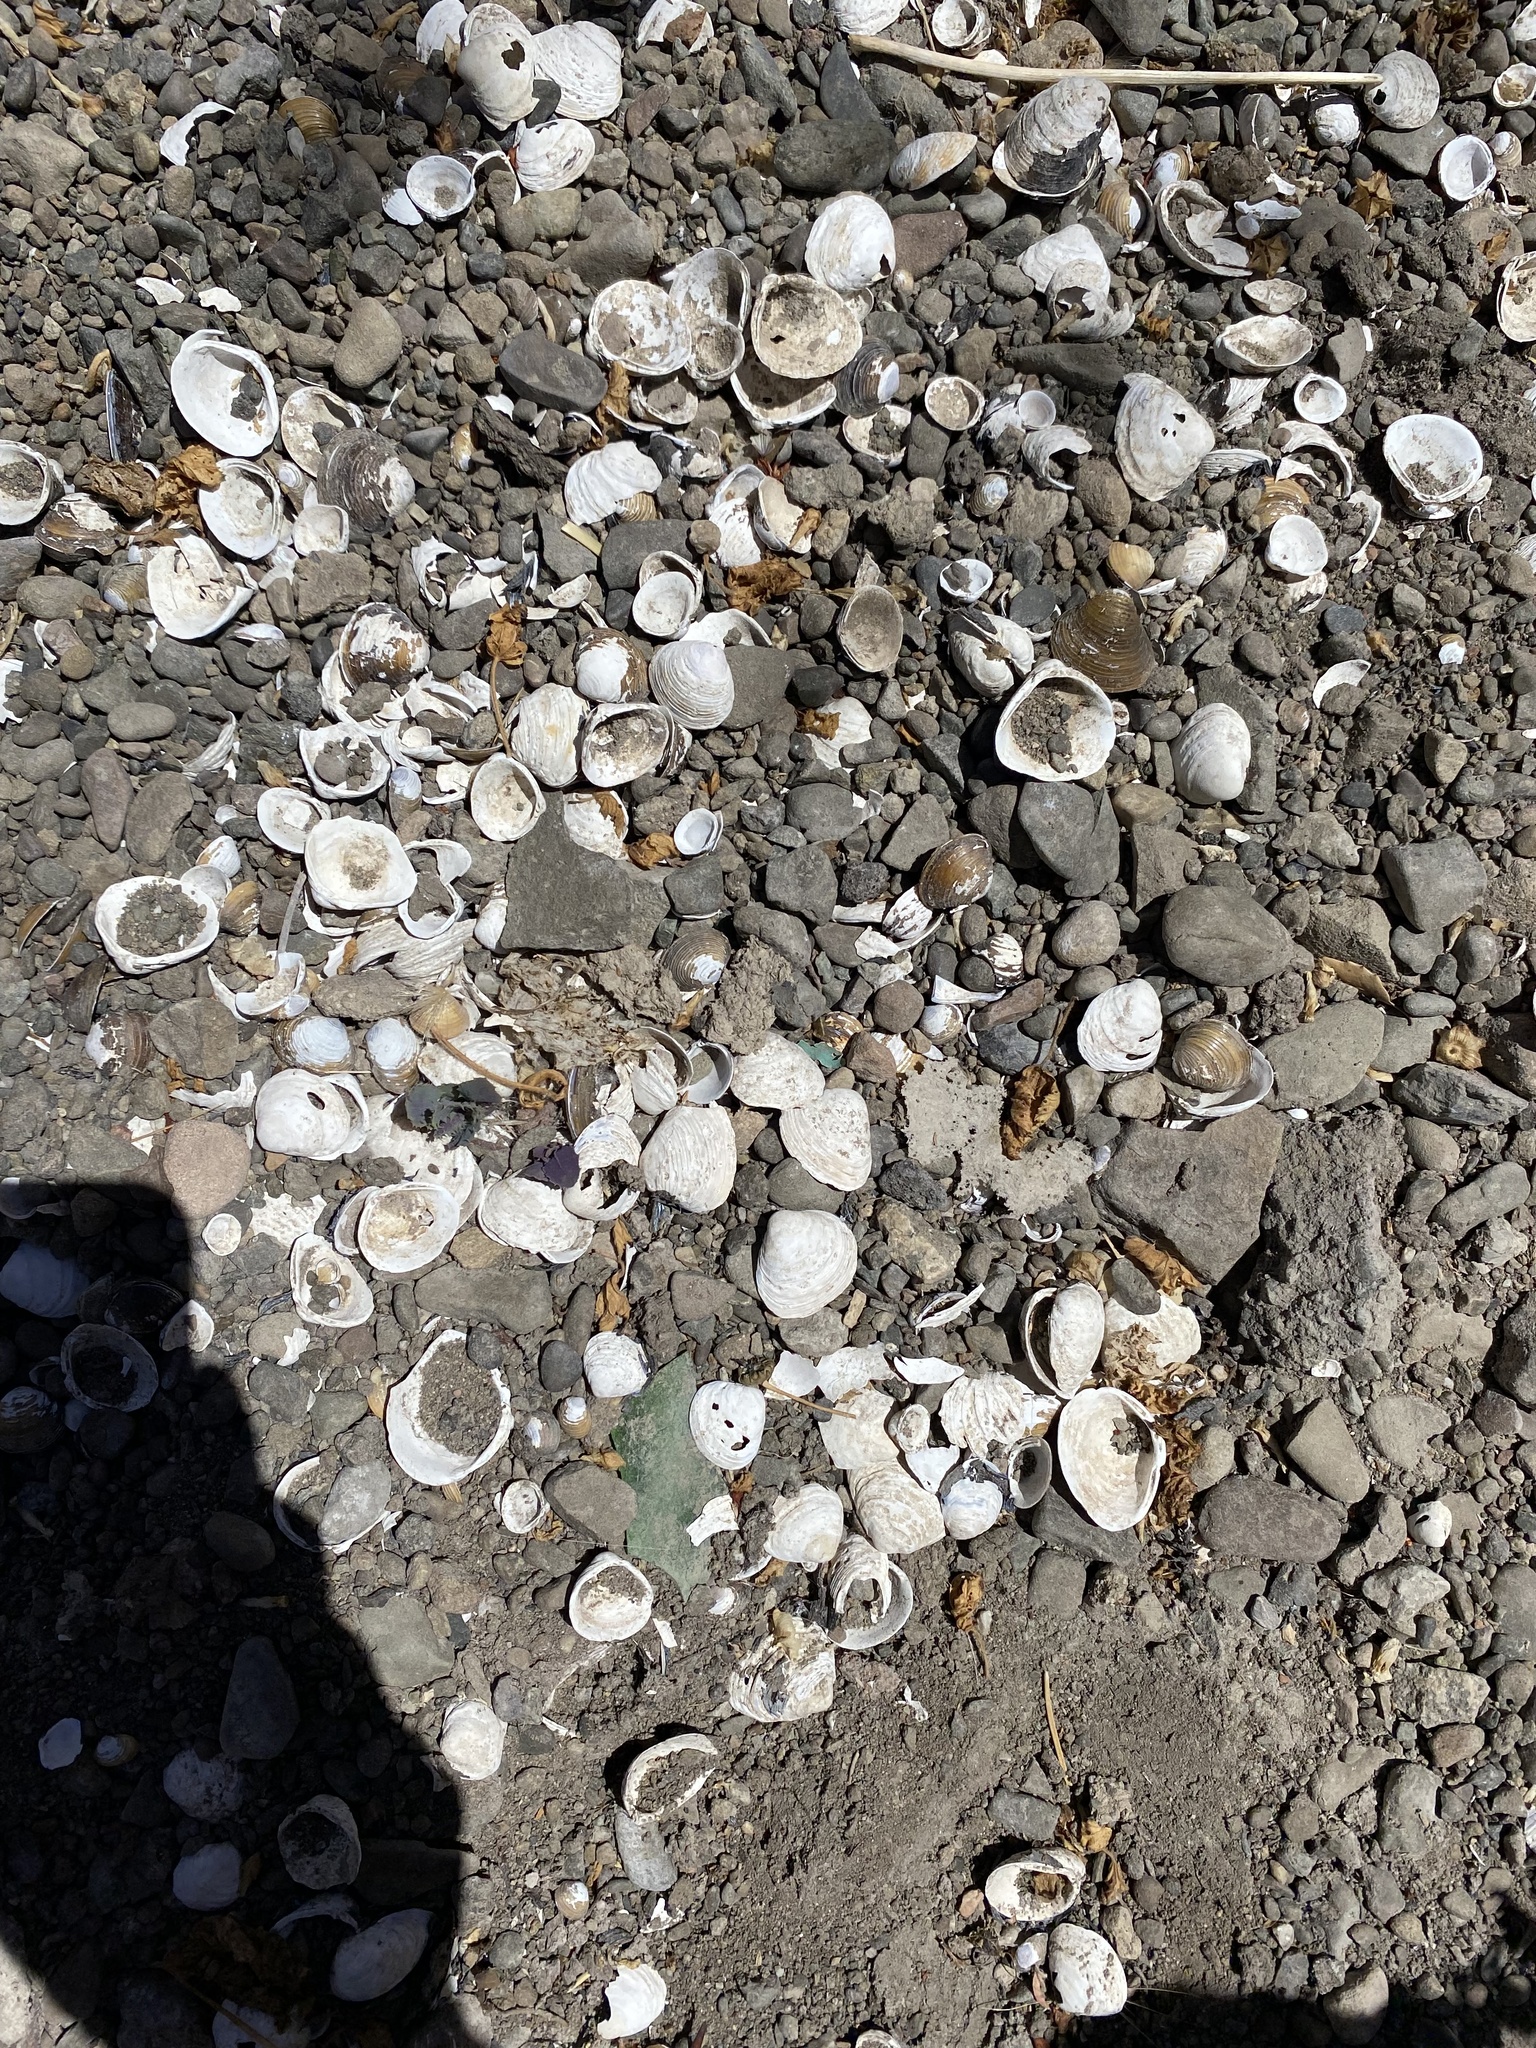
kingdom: Animalia
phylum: Mollusca
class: Bivalvia
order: Venerida
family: Cyrenidae
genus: Corbicula
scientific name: Corbicula fluminea
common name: Asian clam
